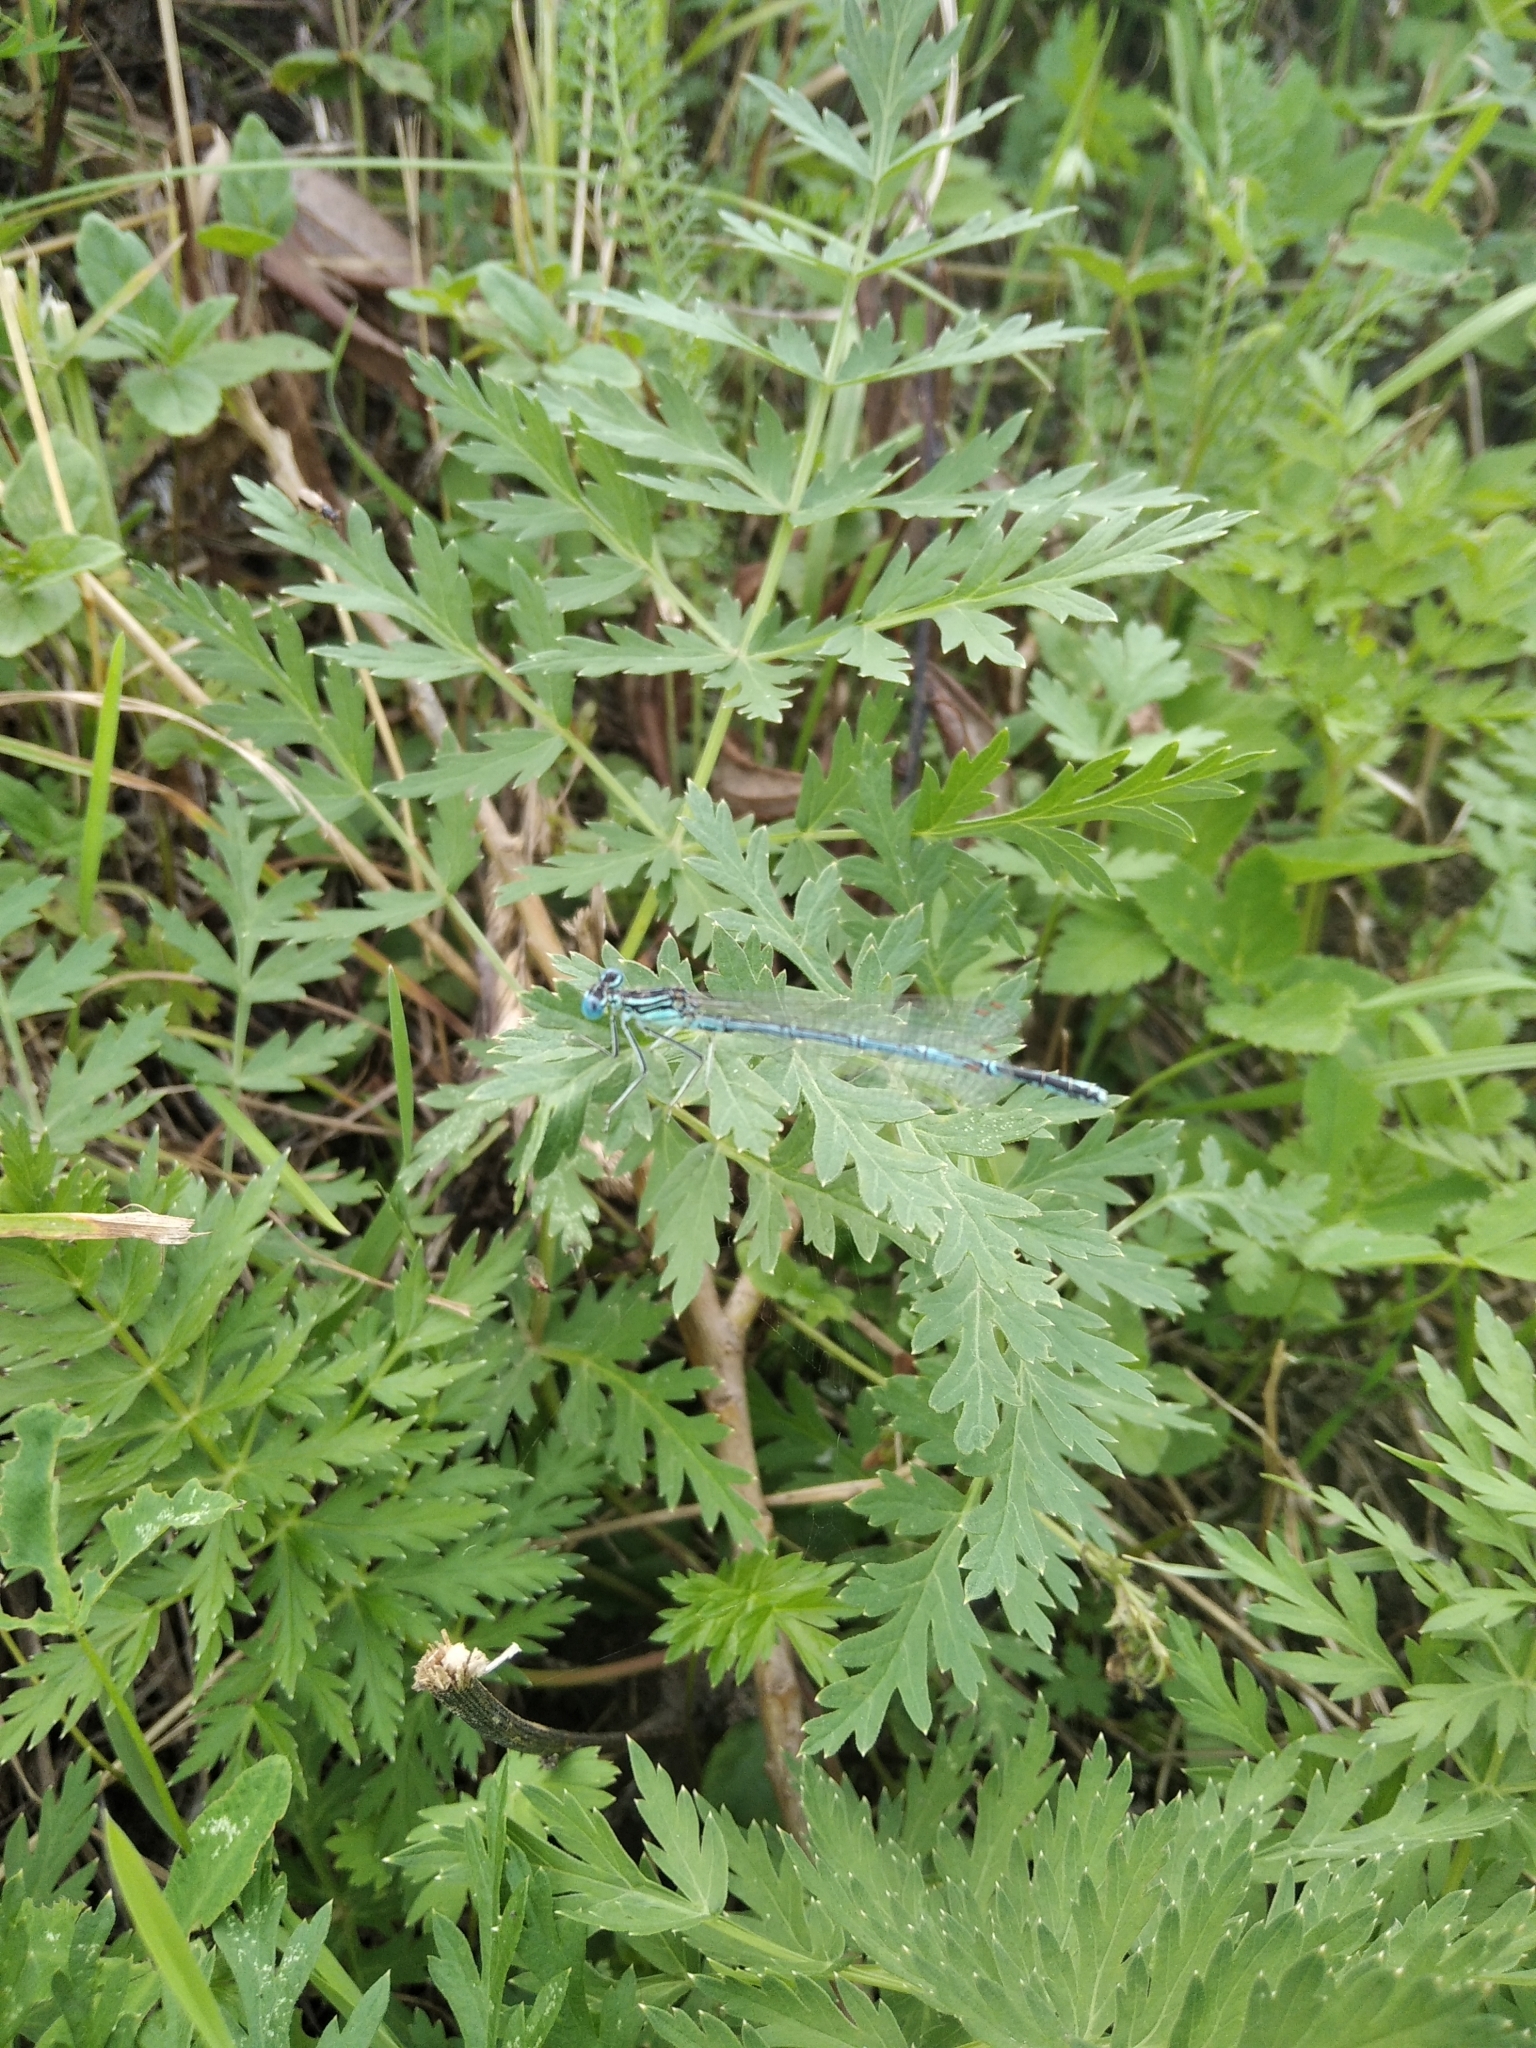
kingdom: Animalia
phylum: Arthropoda
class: Insecta
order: Odonata
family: Platycnemididae
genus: Platycnemis
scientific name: Platycnemis pennipes
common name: White-legged damselfly
